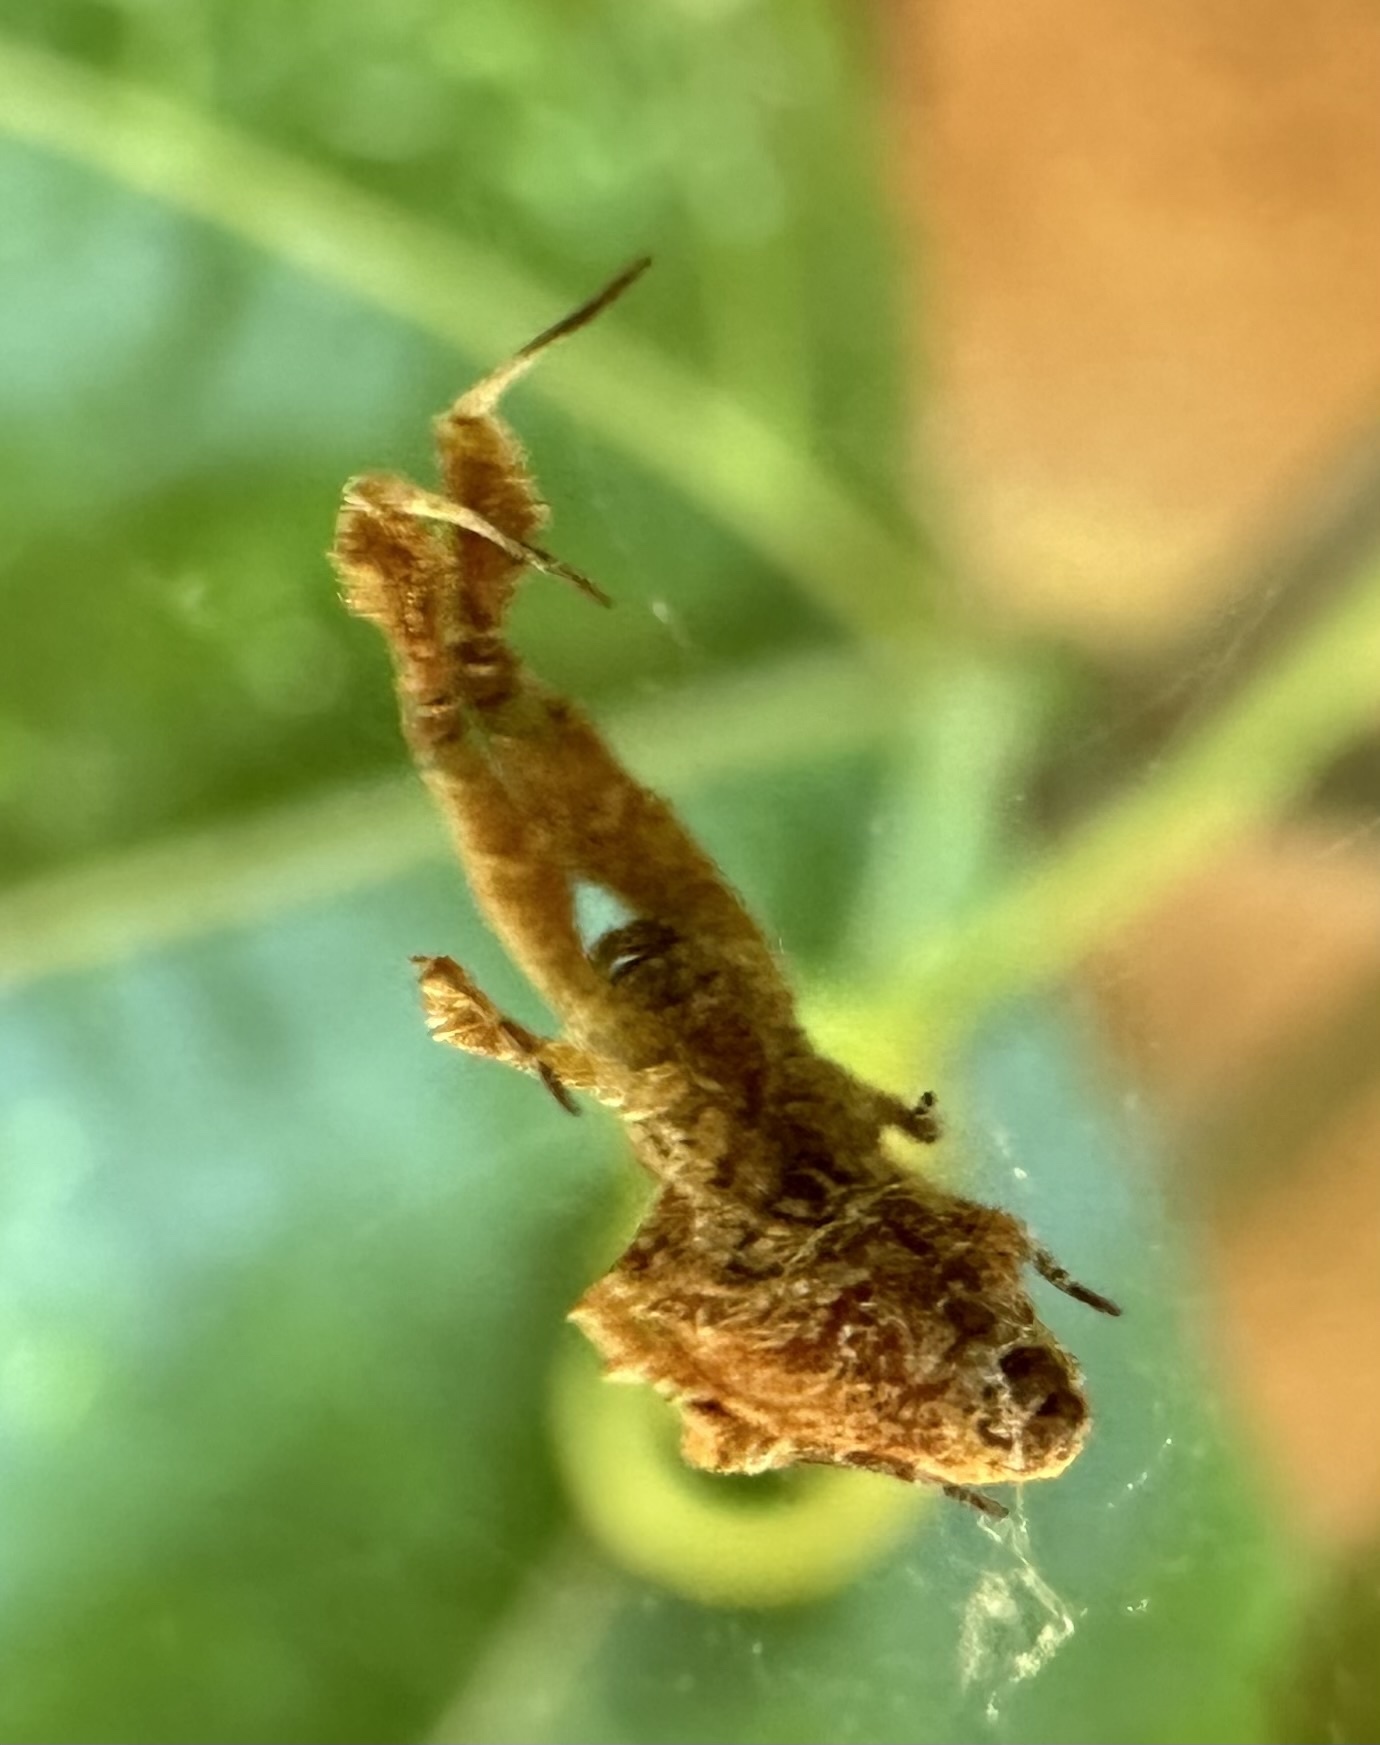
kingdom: Animalia
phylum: Arthropoda
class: Arachnida
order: Araneae
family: Uloboridae
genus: Uloborus
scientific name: Uloborus plumipes
